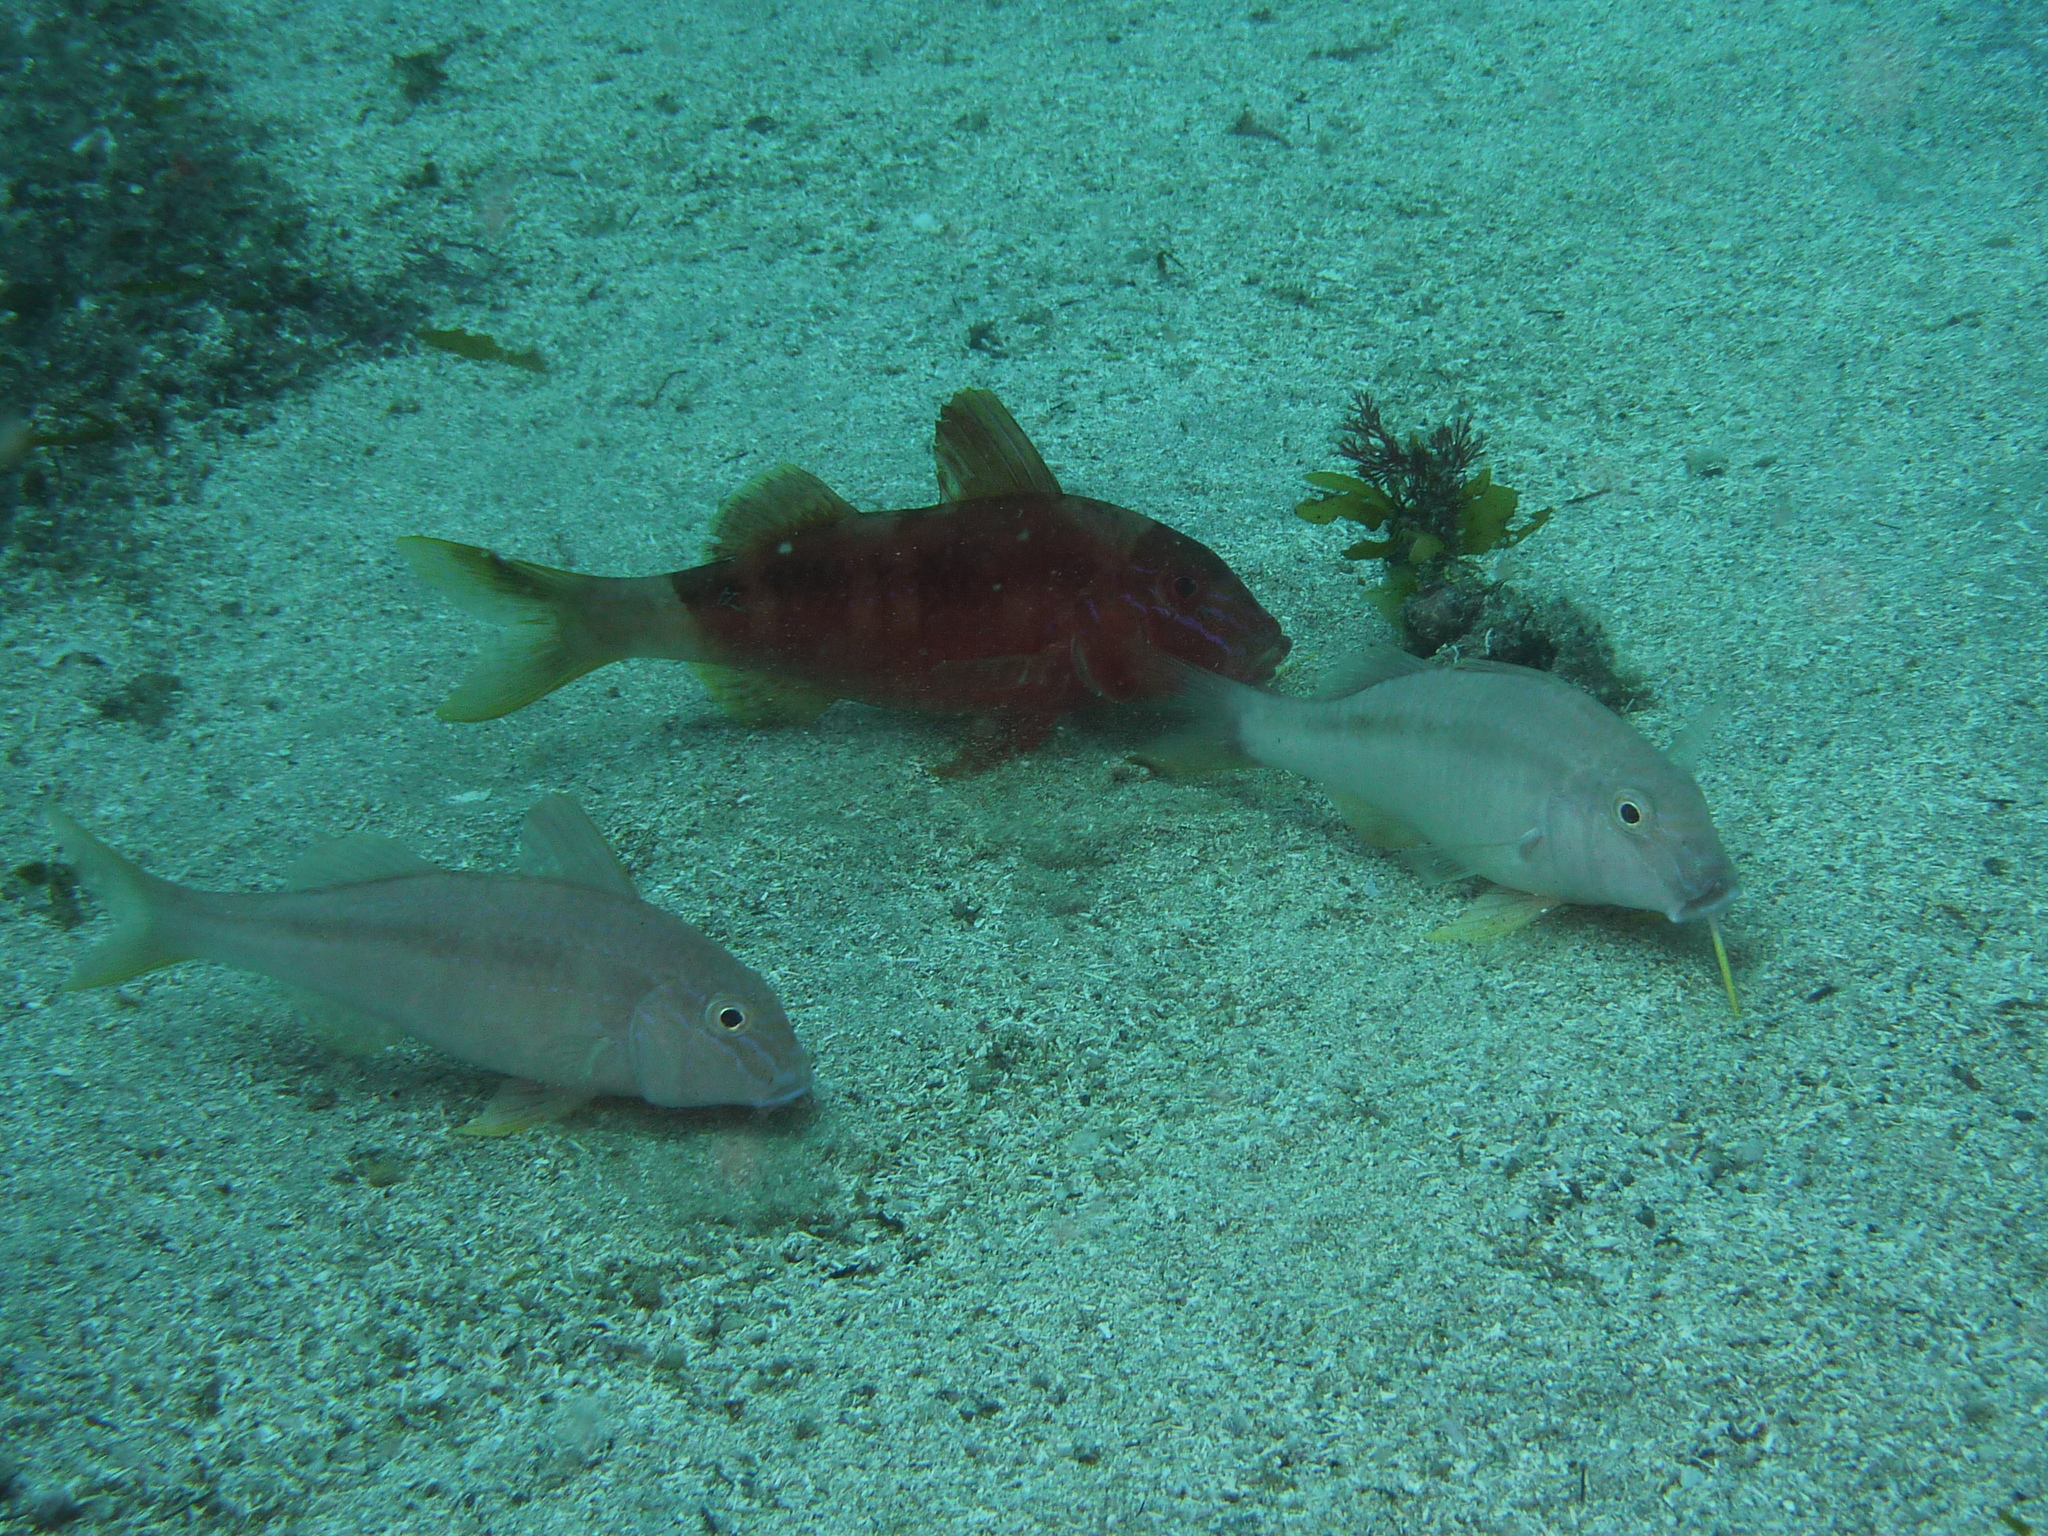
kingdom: Animalia
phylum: Chordata
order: Perciformes
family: Mullidae
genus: Upeneichthys
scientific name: Upeneichthys lineatus
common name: Red mullet
